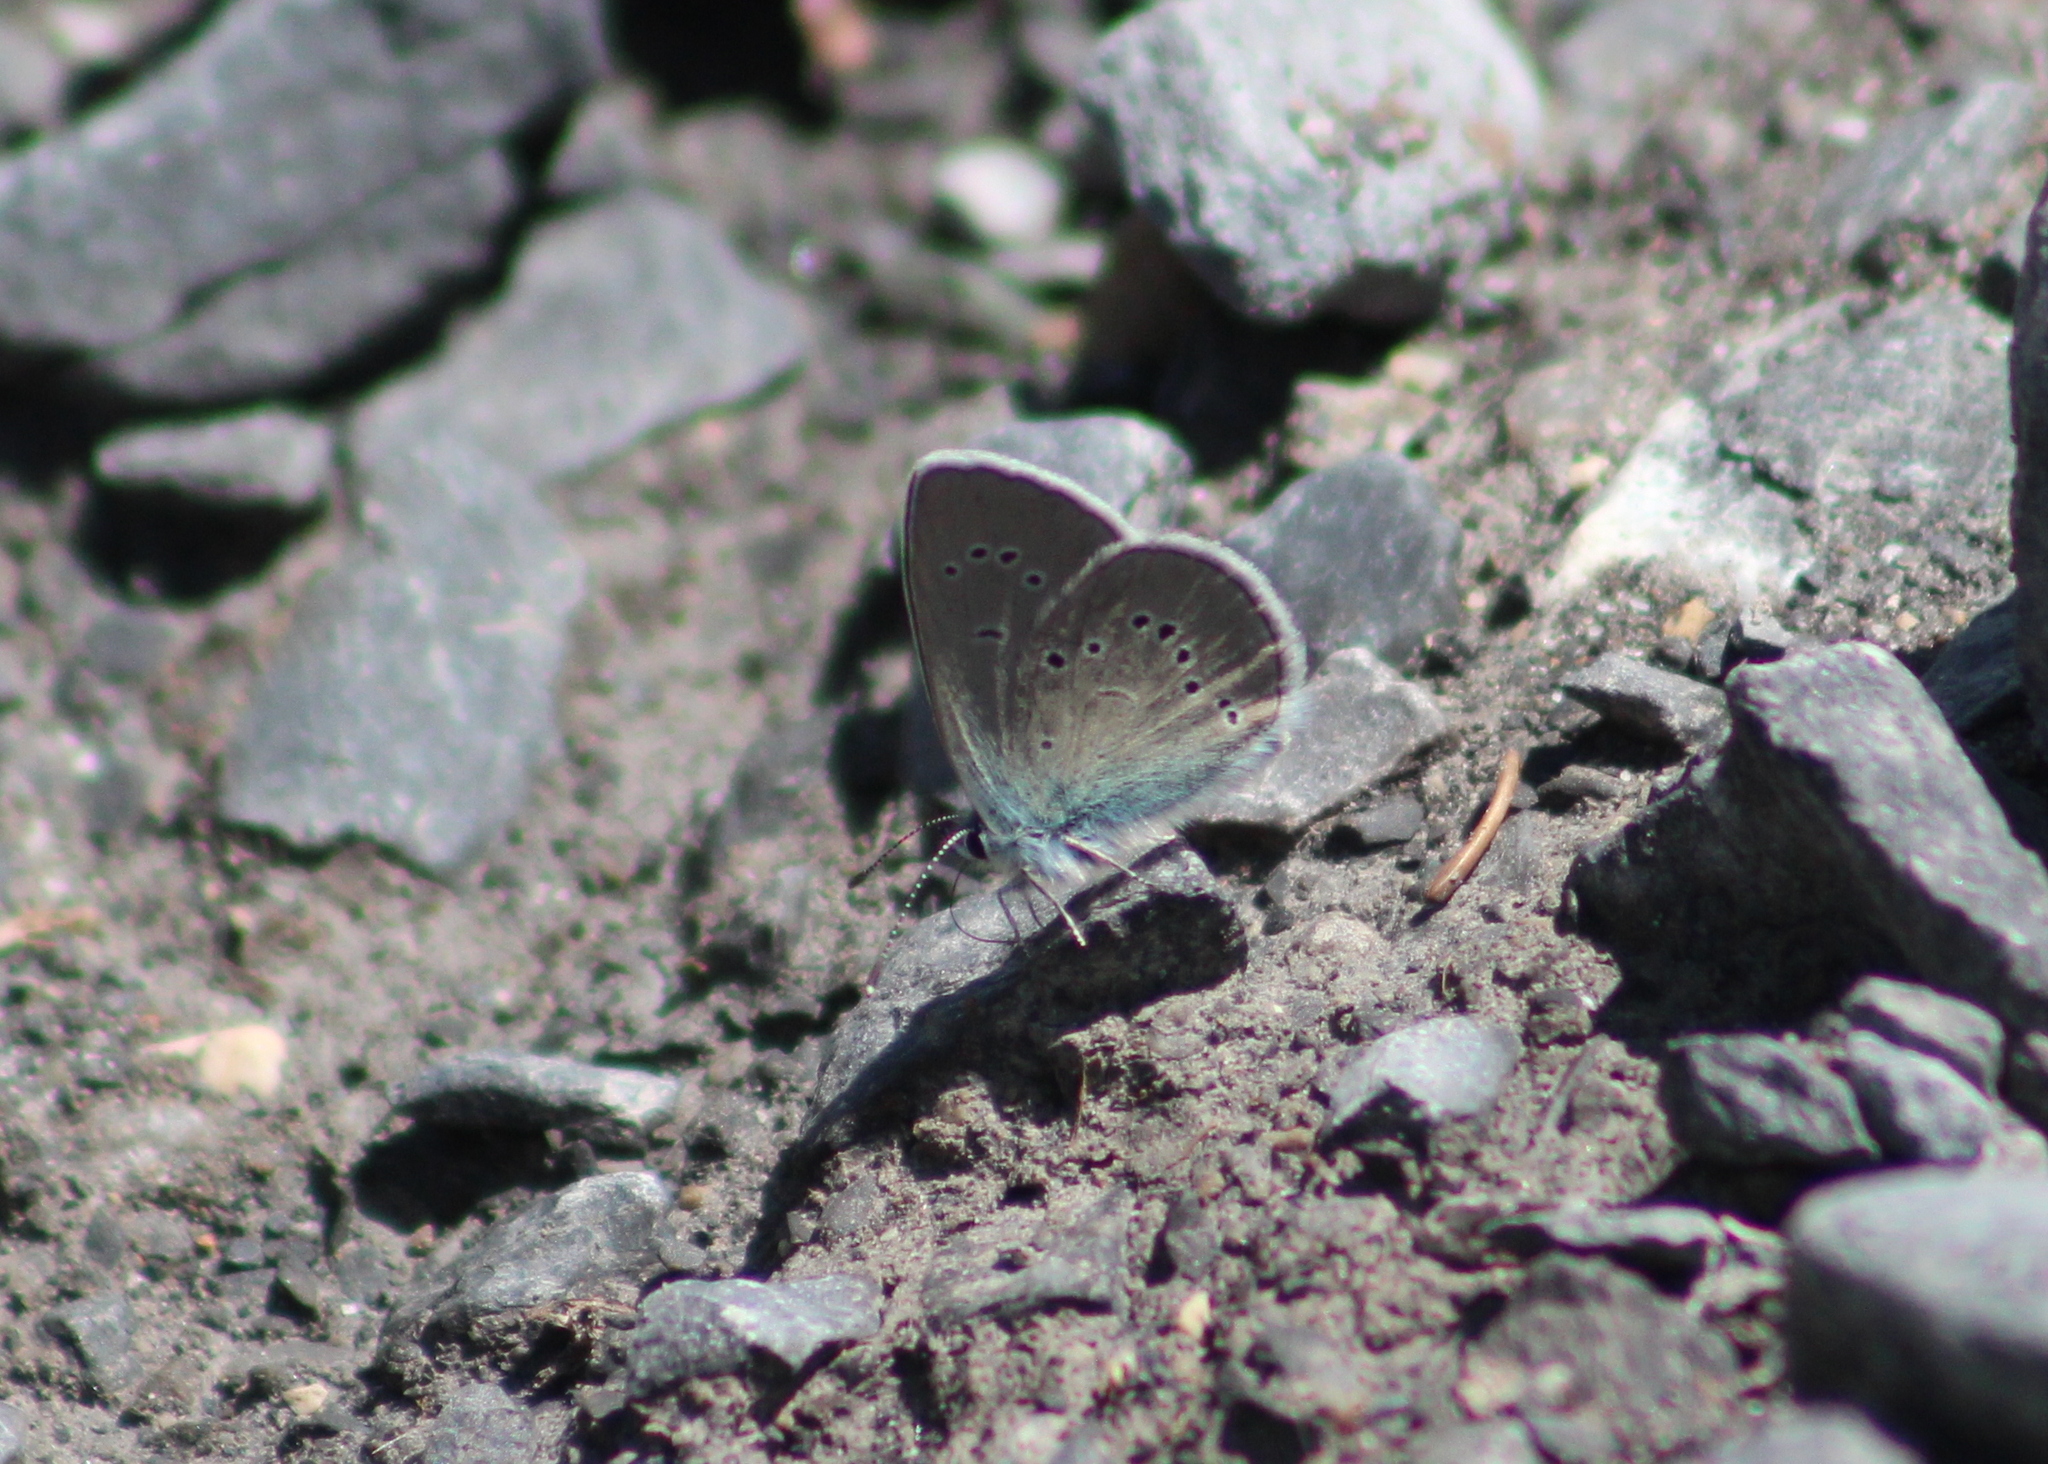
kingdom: Animalia
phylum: Arthropoda
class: Insecta
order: Lepidoptera
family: Lycaenidae
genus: Cyaniris
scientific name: Cyaniris semiargus
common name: Mazarine blue
